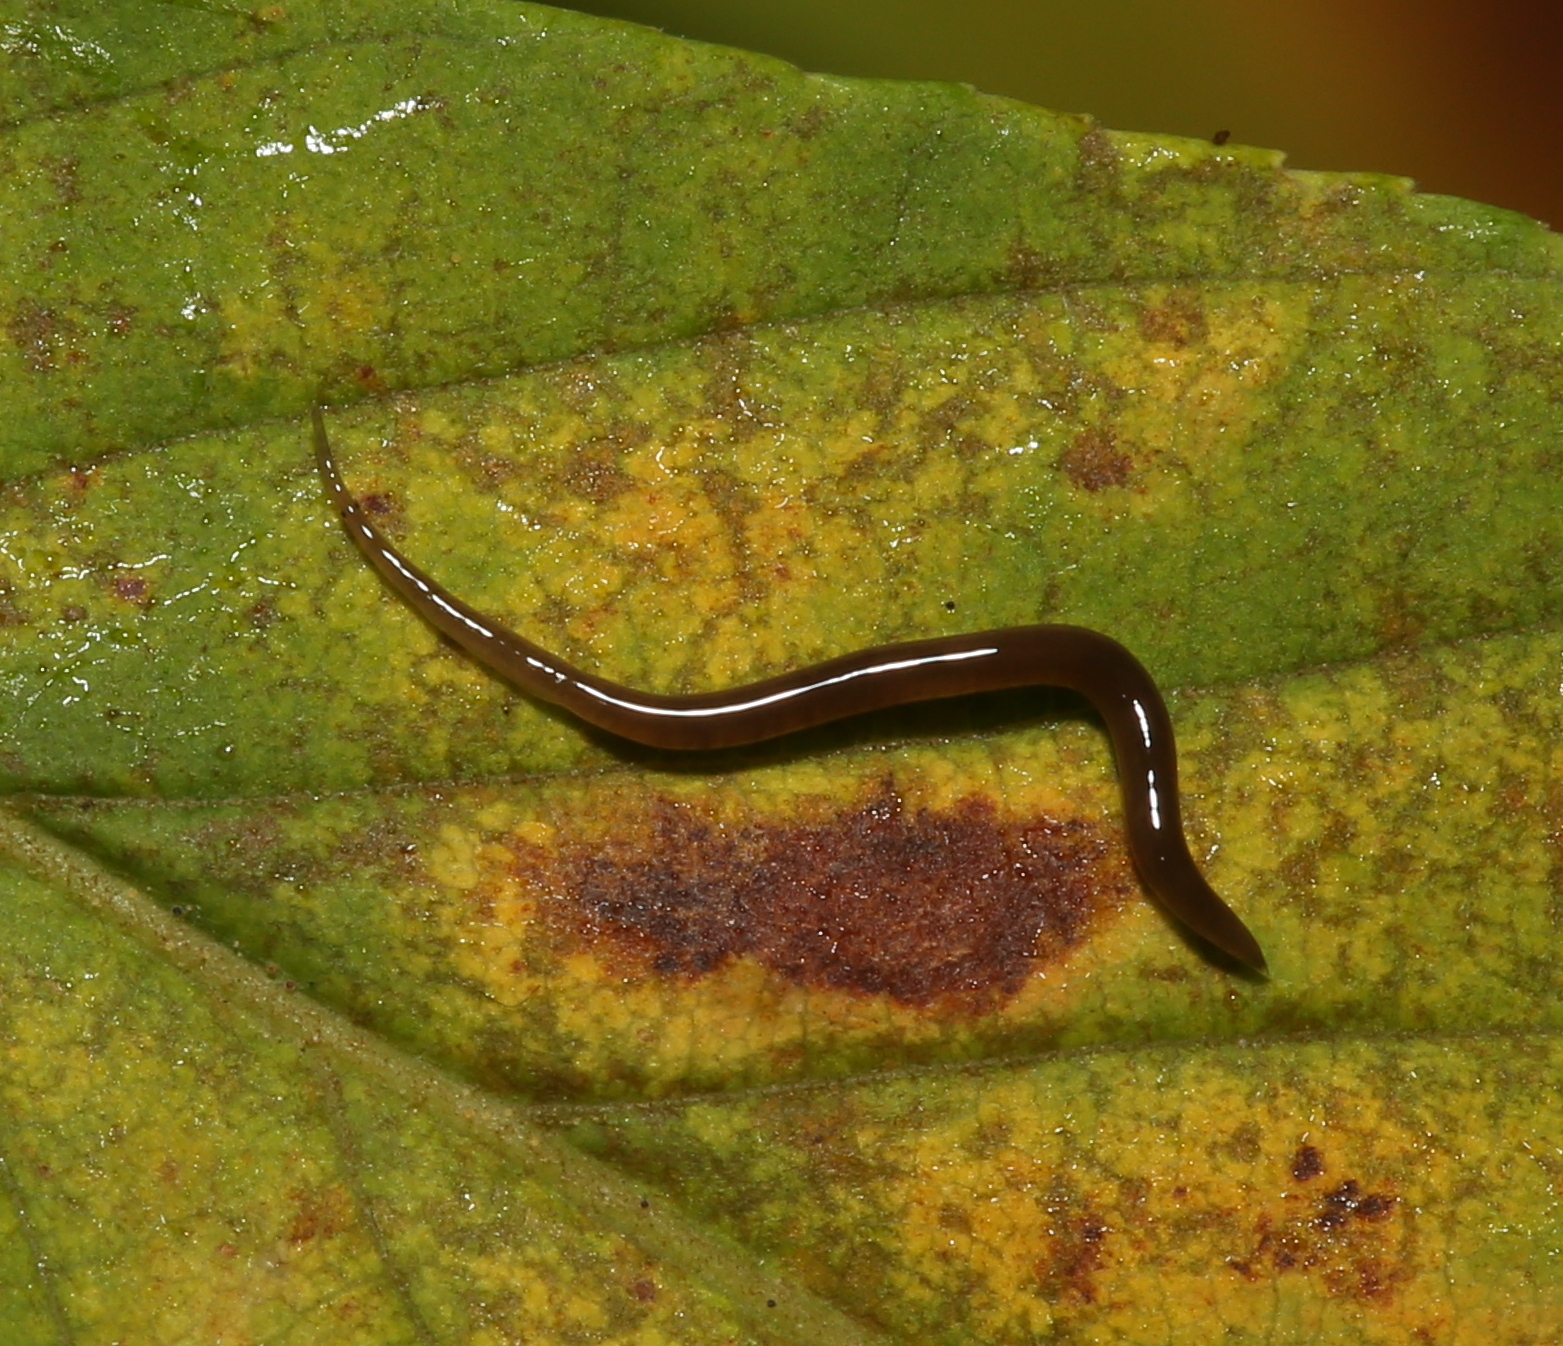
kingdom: Animalia
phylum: Platyhelminthes
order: Tricladida
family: Geoplanidae
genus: Rhynchodemus
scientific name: Rhynchodemus sylvaticus
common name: A flatworm
